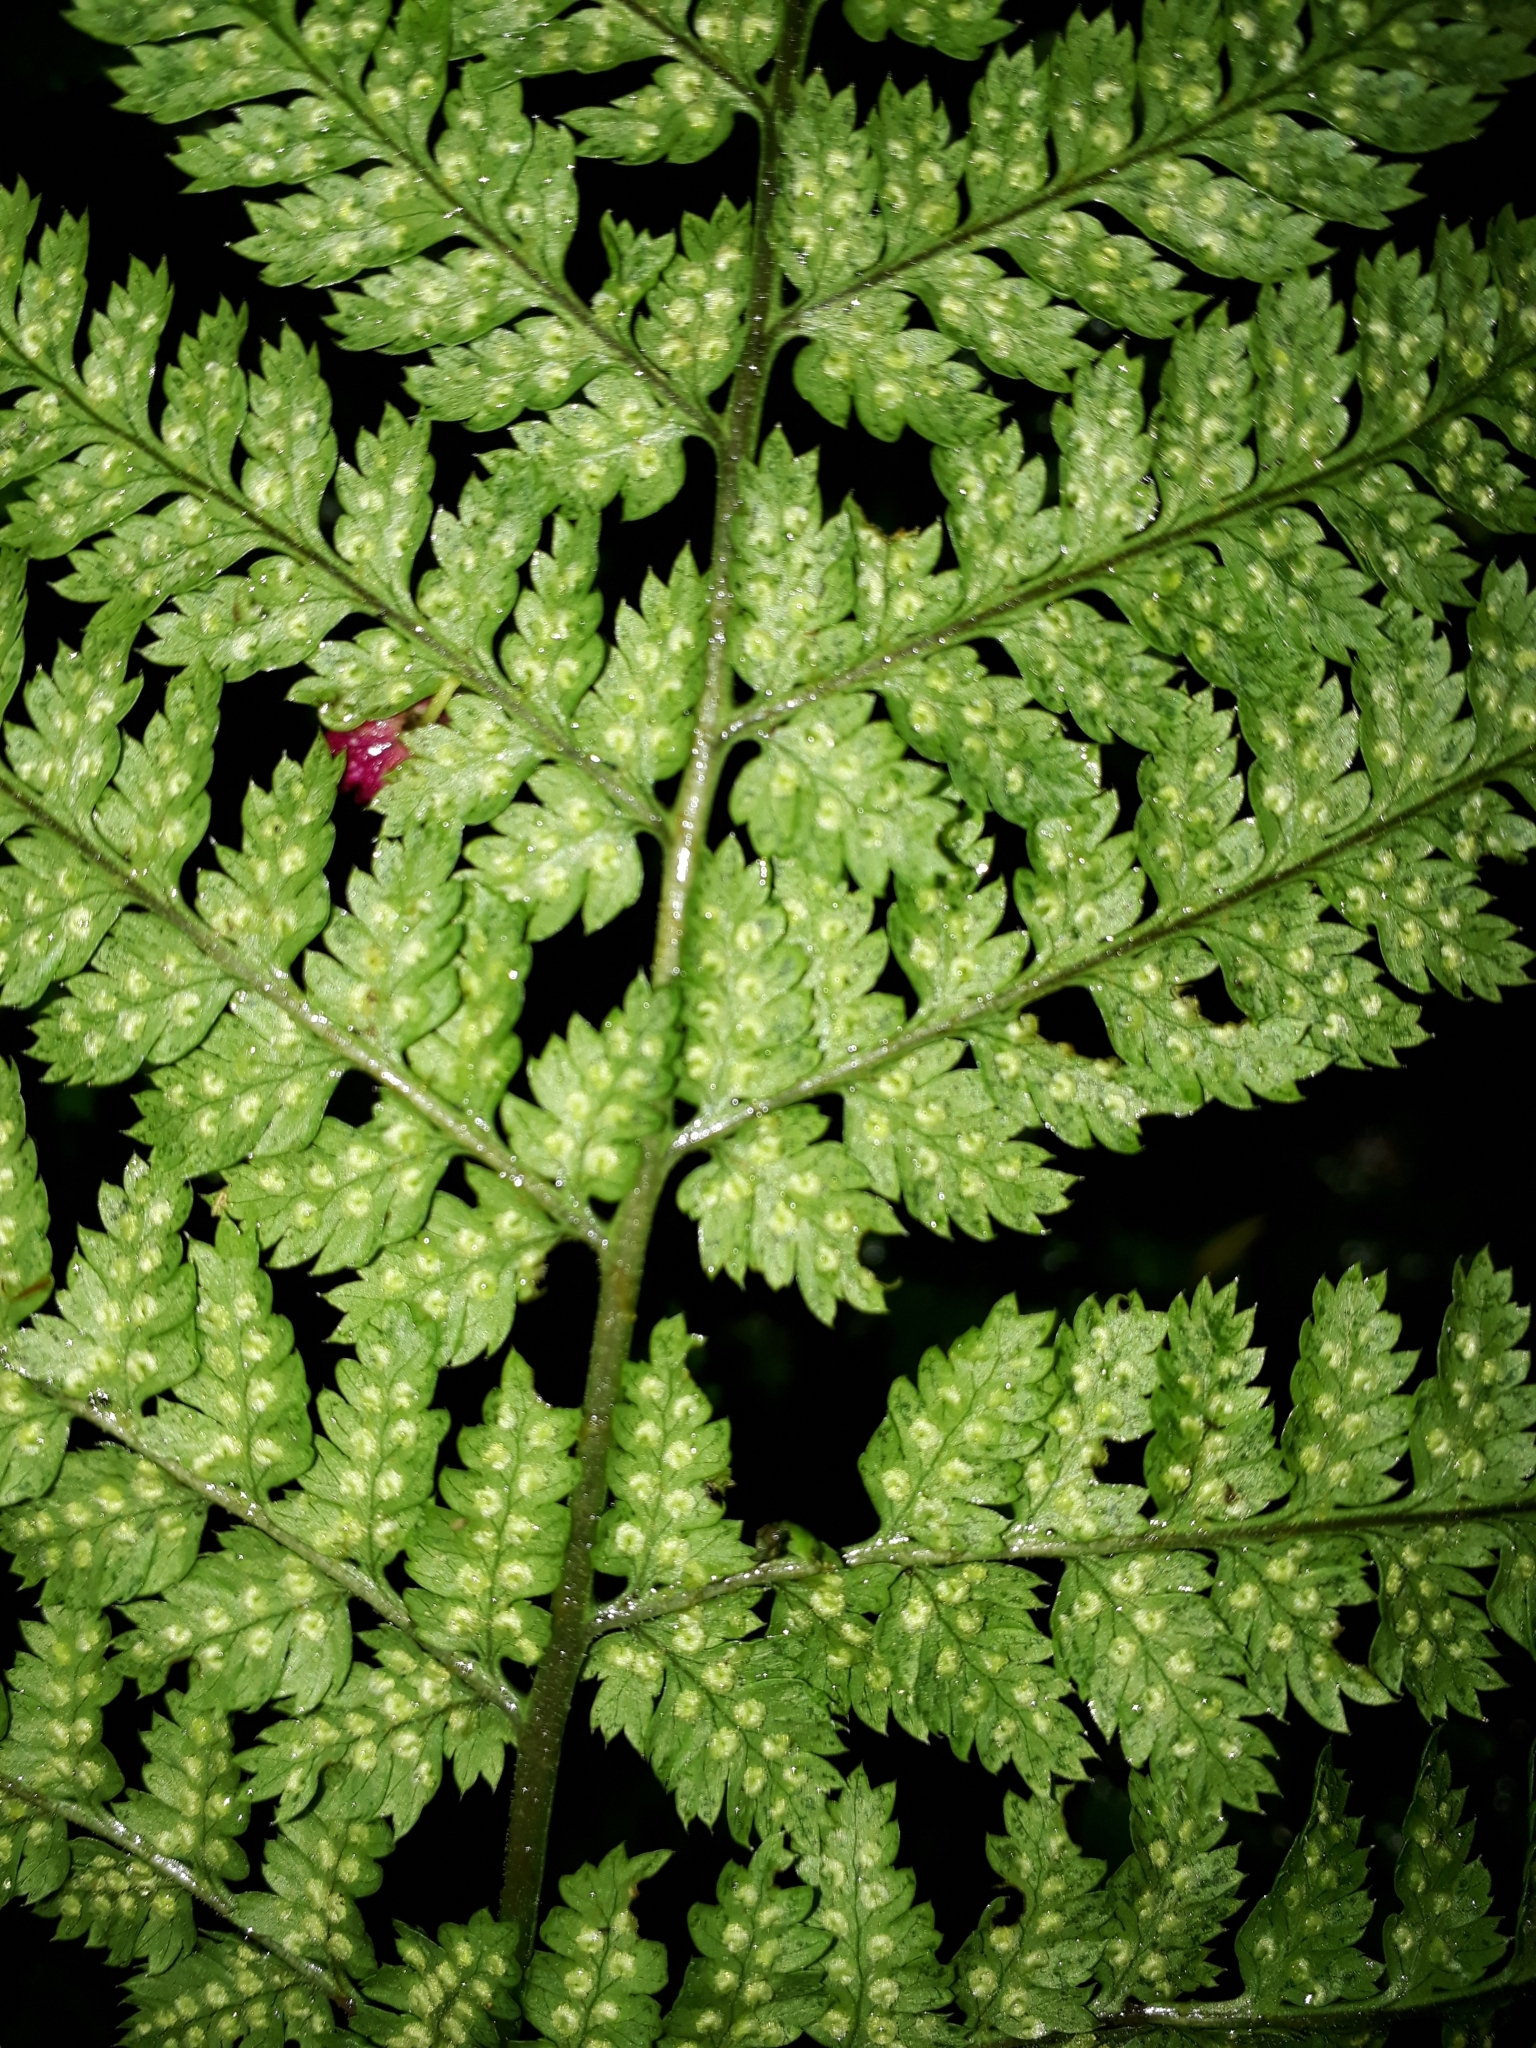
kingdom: Plantae
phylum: Tracheophyta
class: Polypodiopsida
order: Polypodiales
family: Dryopteridaceae
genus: Dryopteris
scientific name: Dryopteris dilatata
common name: Broad buckler-fern
